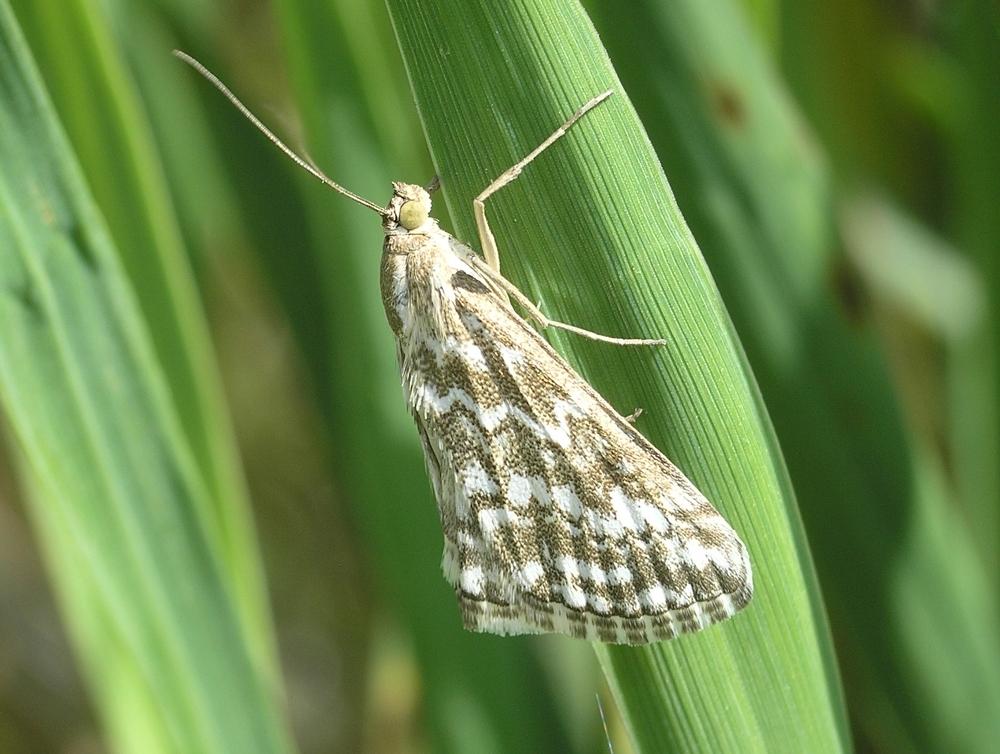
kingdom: Animalia
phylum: Arthropoda
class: Insecta
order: Lepidoptera
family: Crambidae
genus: Evergestis
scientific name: Evergestis frumentalis
